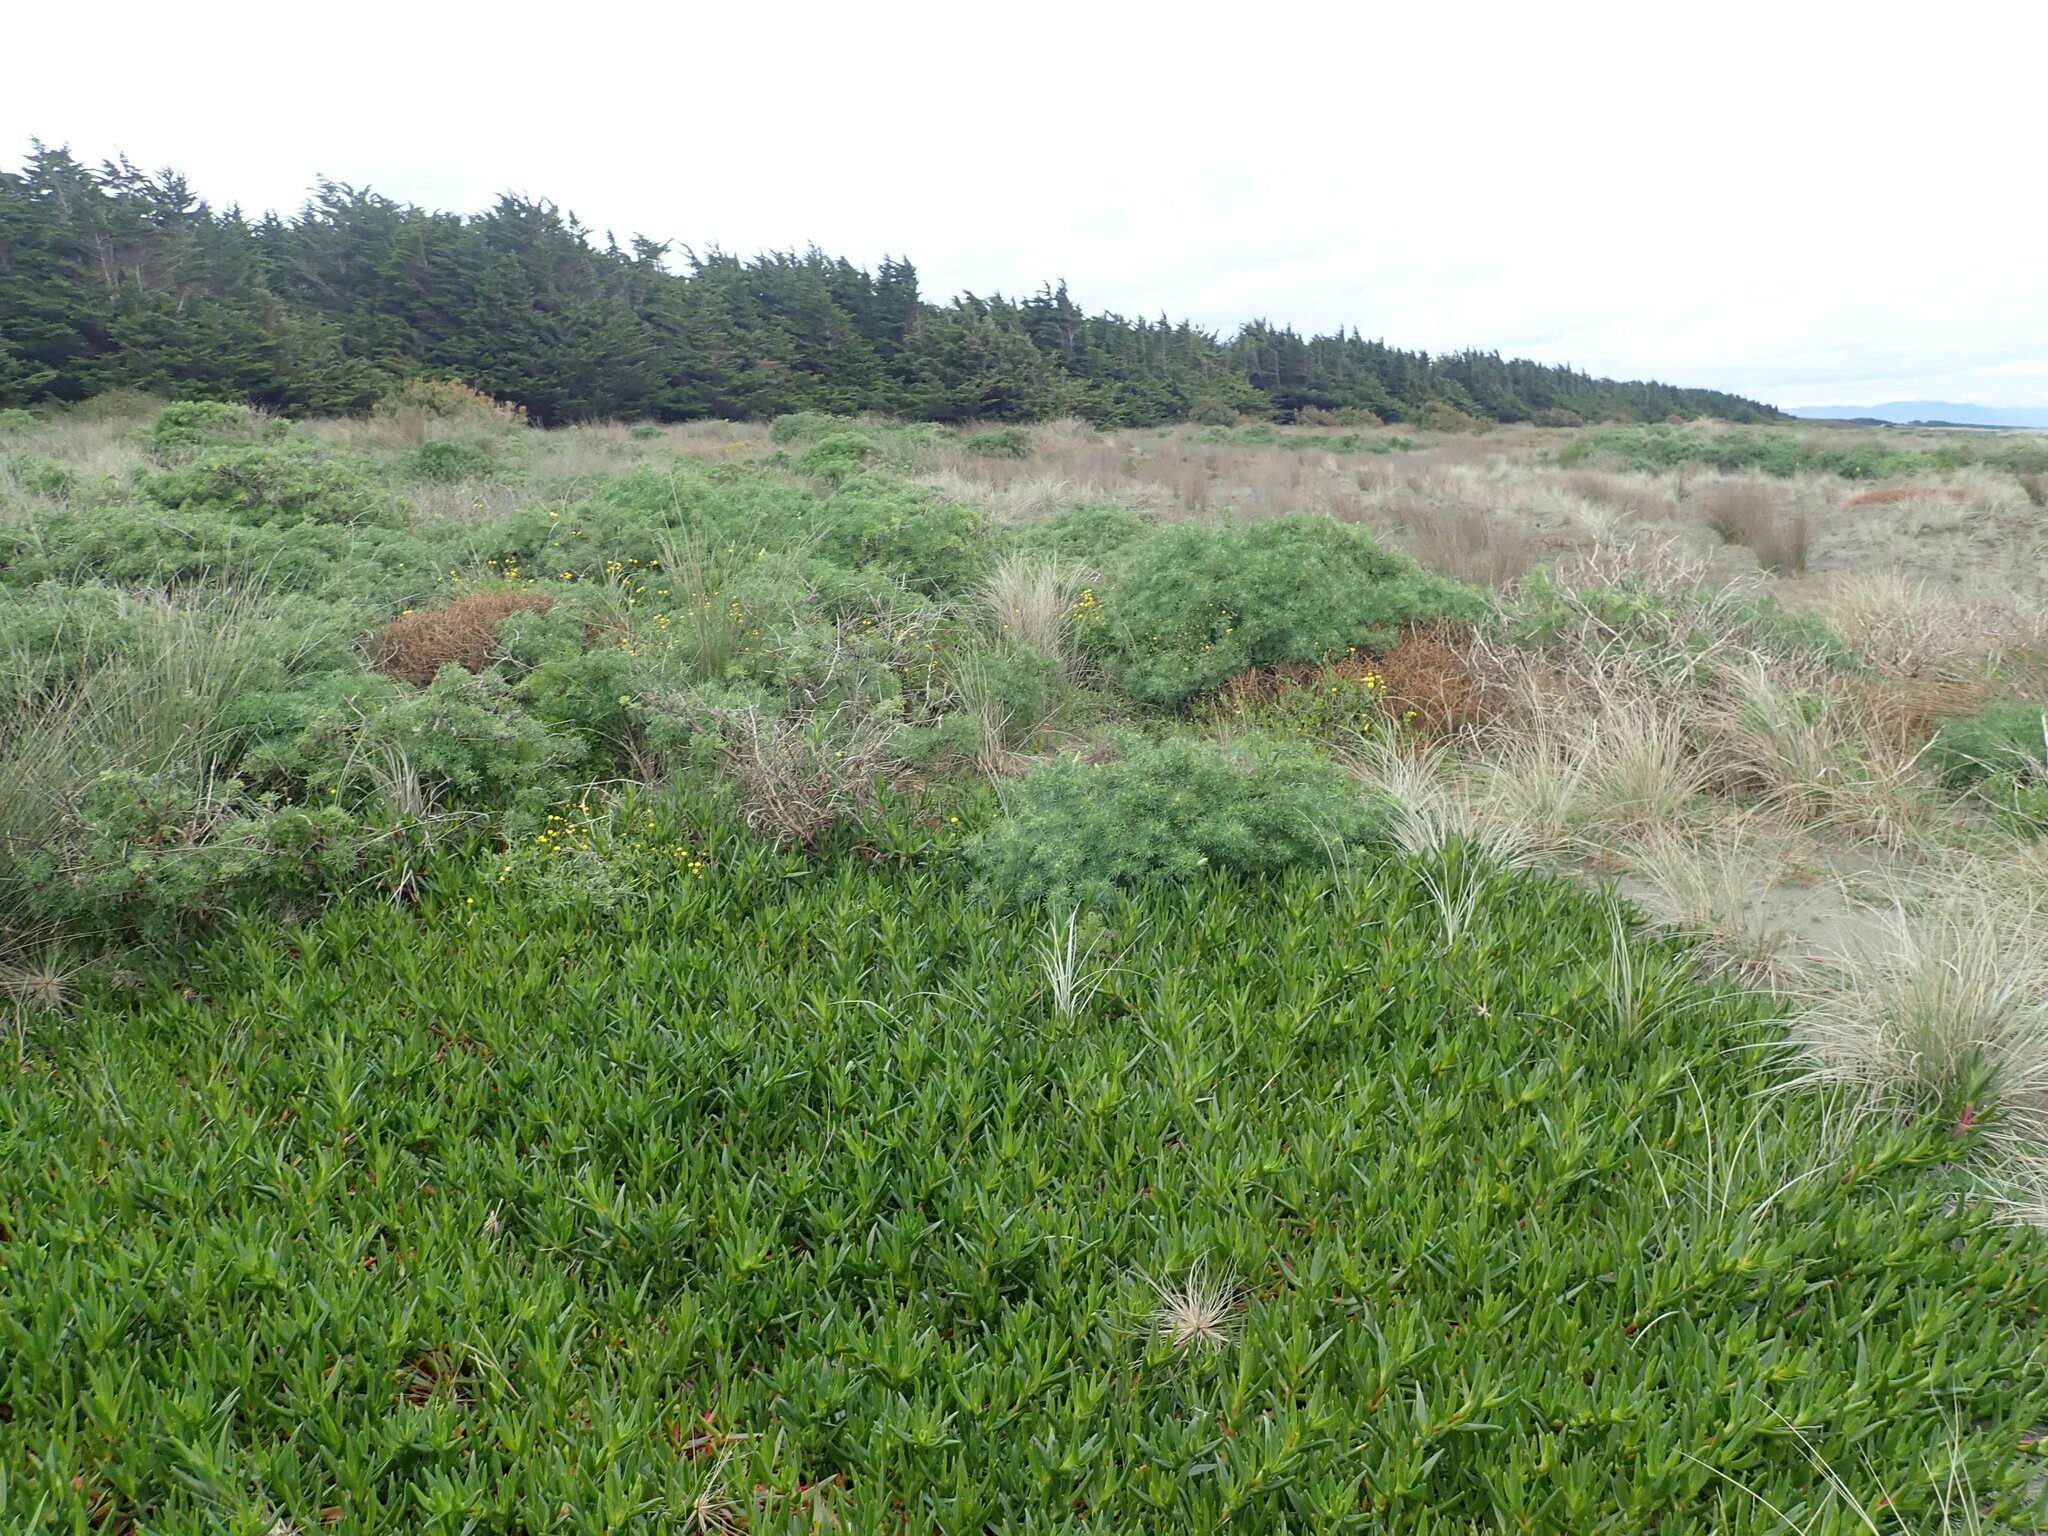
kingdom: Plantae
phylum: Tracheophyta
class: Magnoliopsida
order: Asterales
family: Asteraceae
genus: Senecio
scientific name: Senecio skirrhodon
